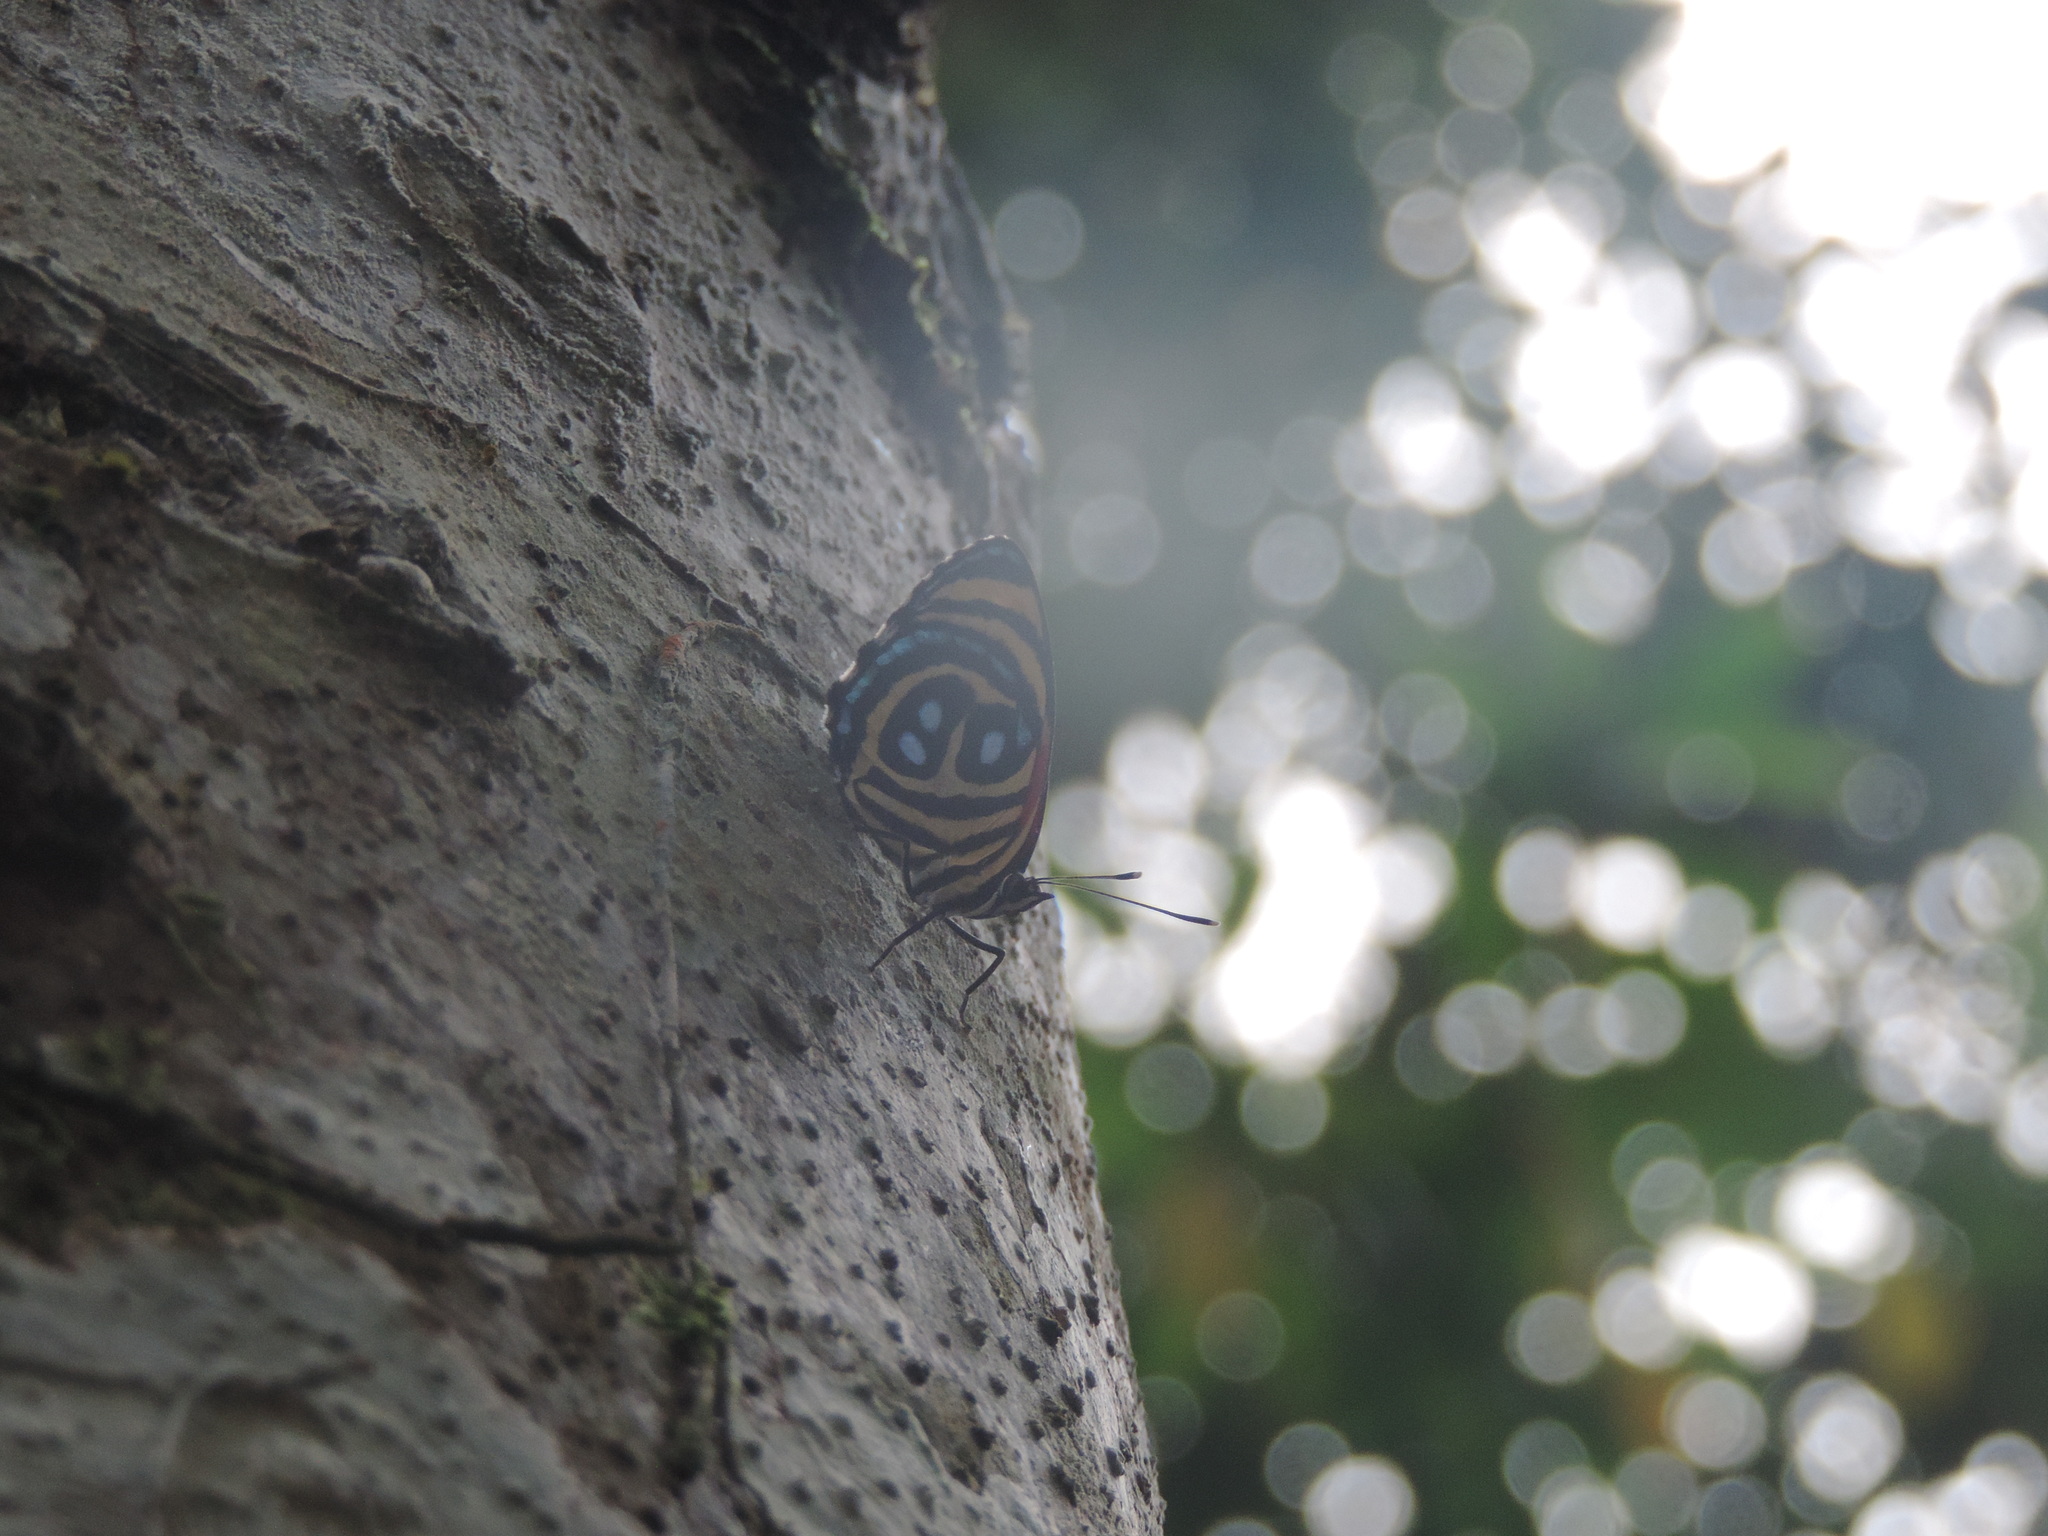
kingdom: Animalia
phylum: Arthropoda
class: Insecta
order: Lepidoptera
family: Nymphalidae
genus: Catagramma
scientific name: Catagramma pyracmon
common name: Google-eyed eighty-eight
